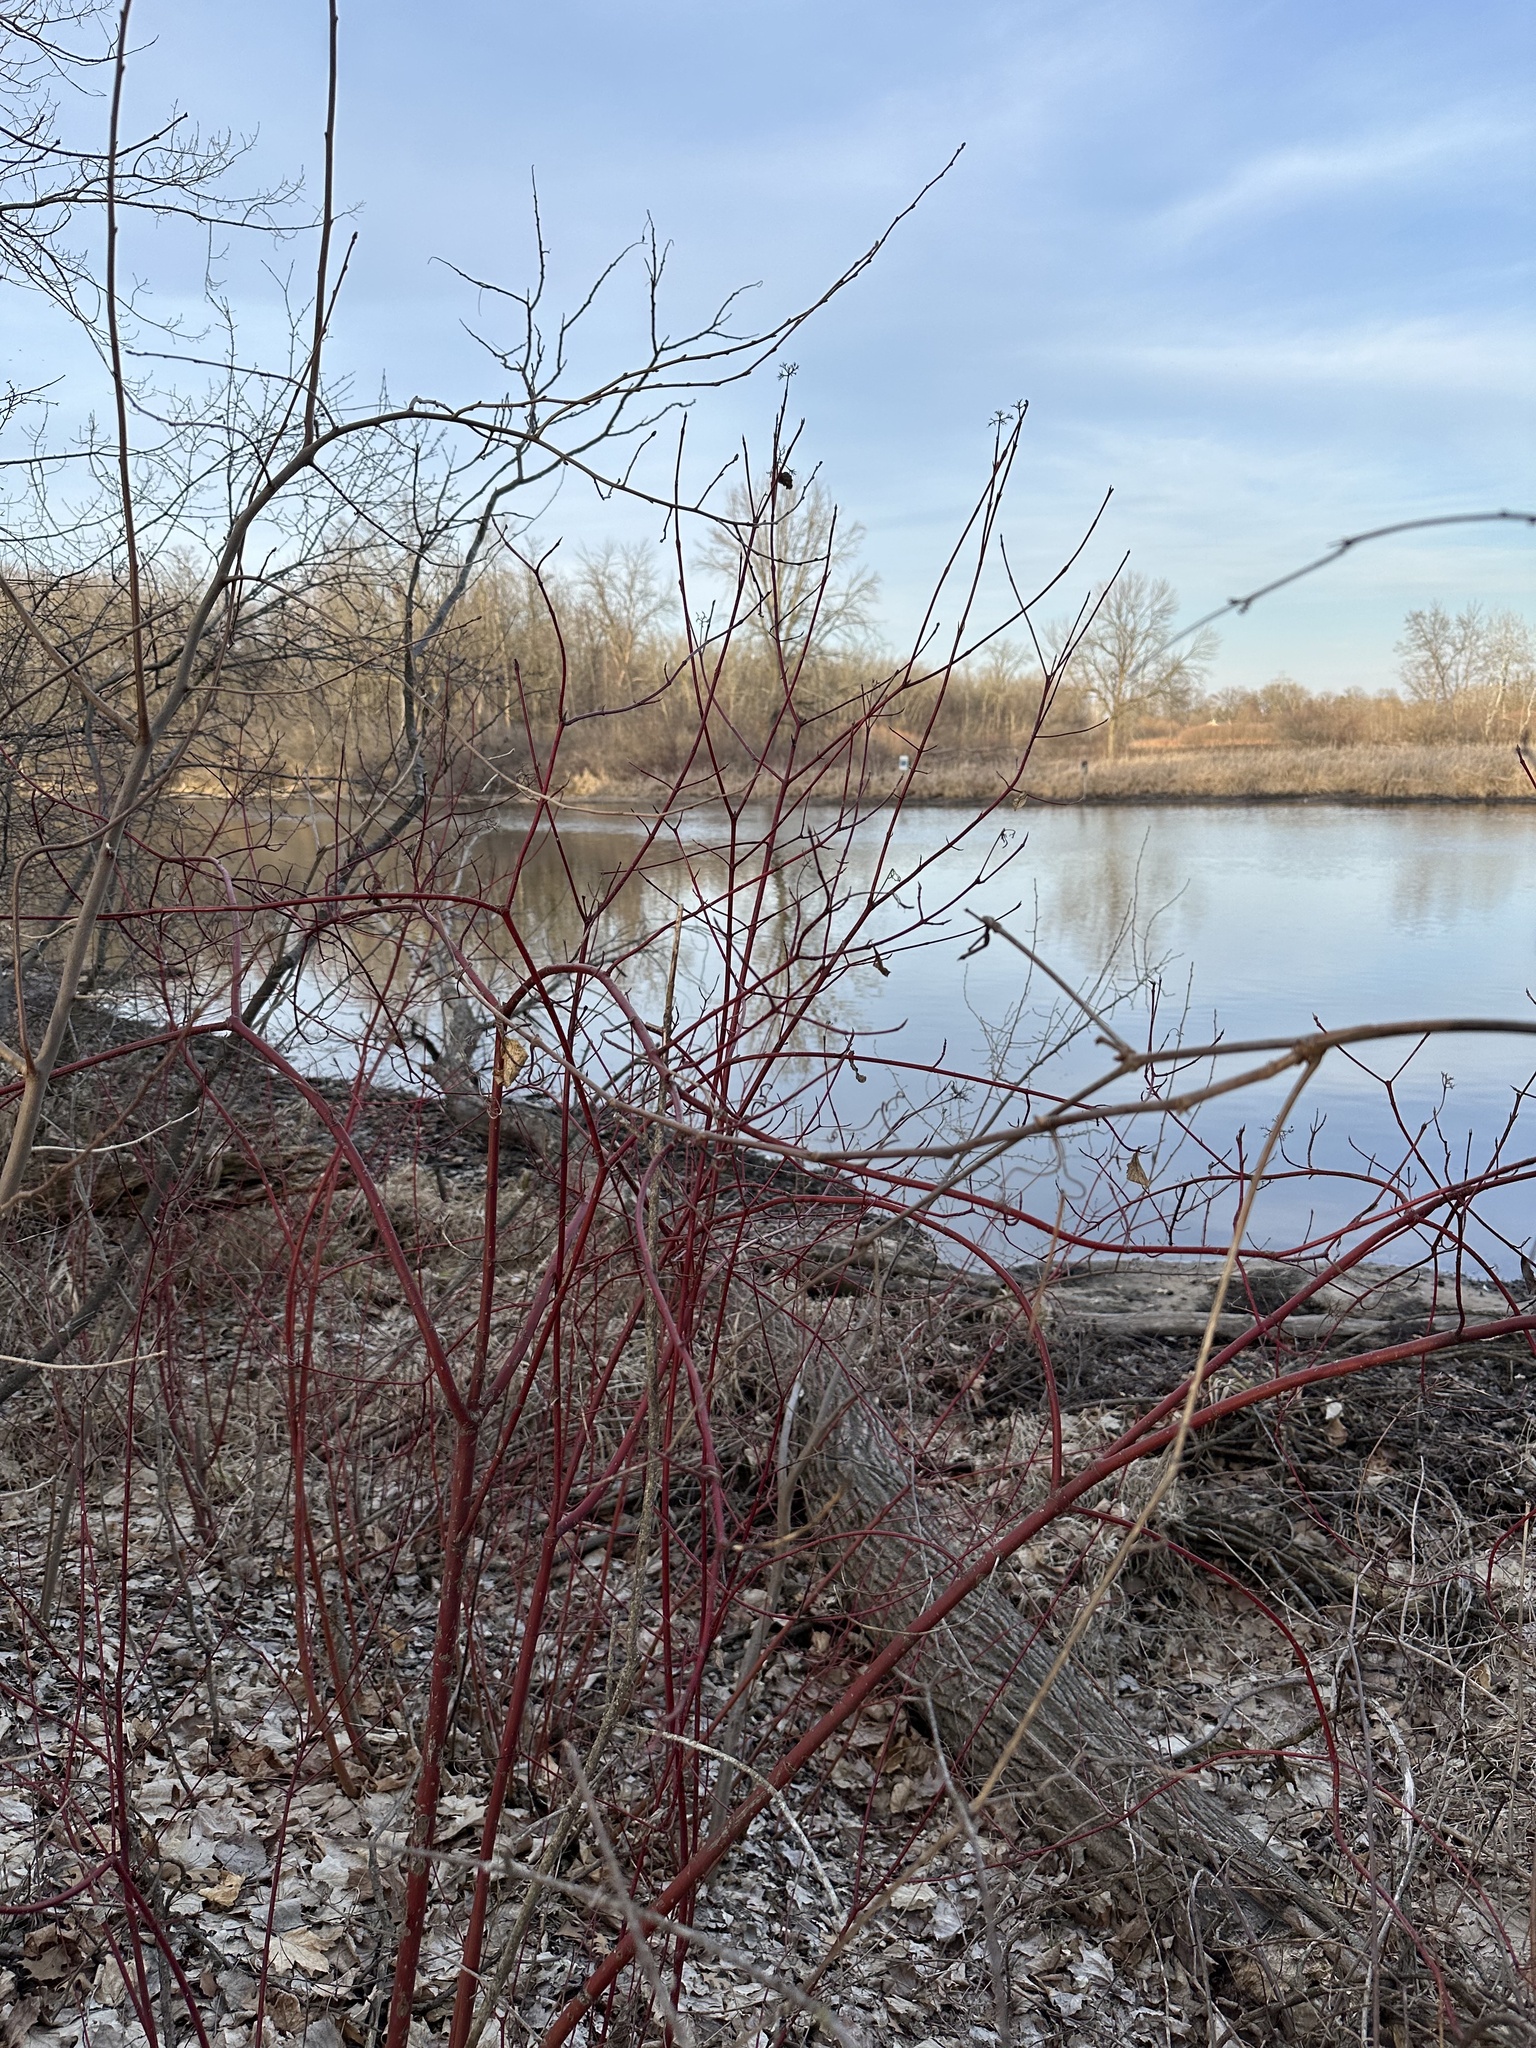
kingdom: Plantae
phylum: Tracheophyta
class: Magnoliopsida
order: Cornales
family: Cornaceae
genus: Cornus
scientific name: Cornus sericea
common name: Red-osier dogwood
